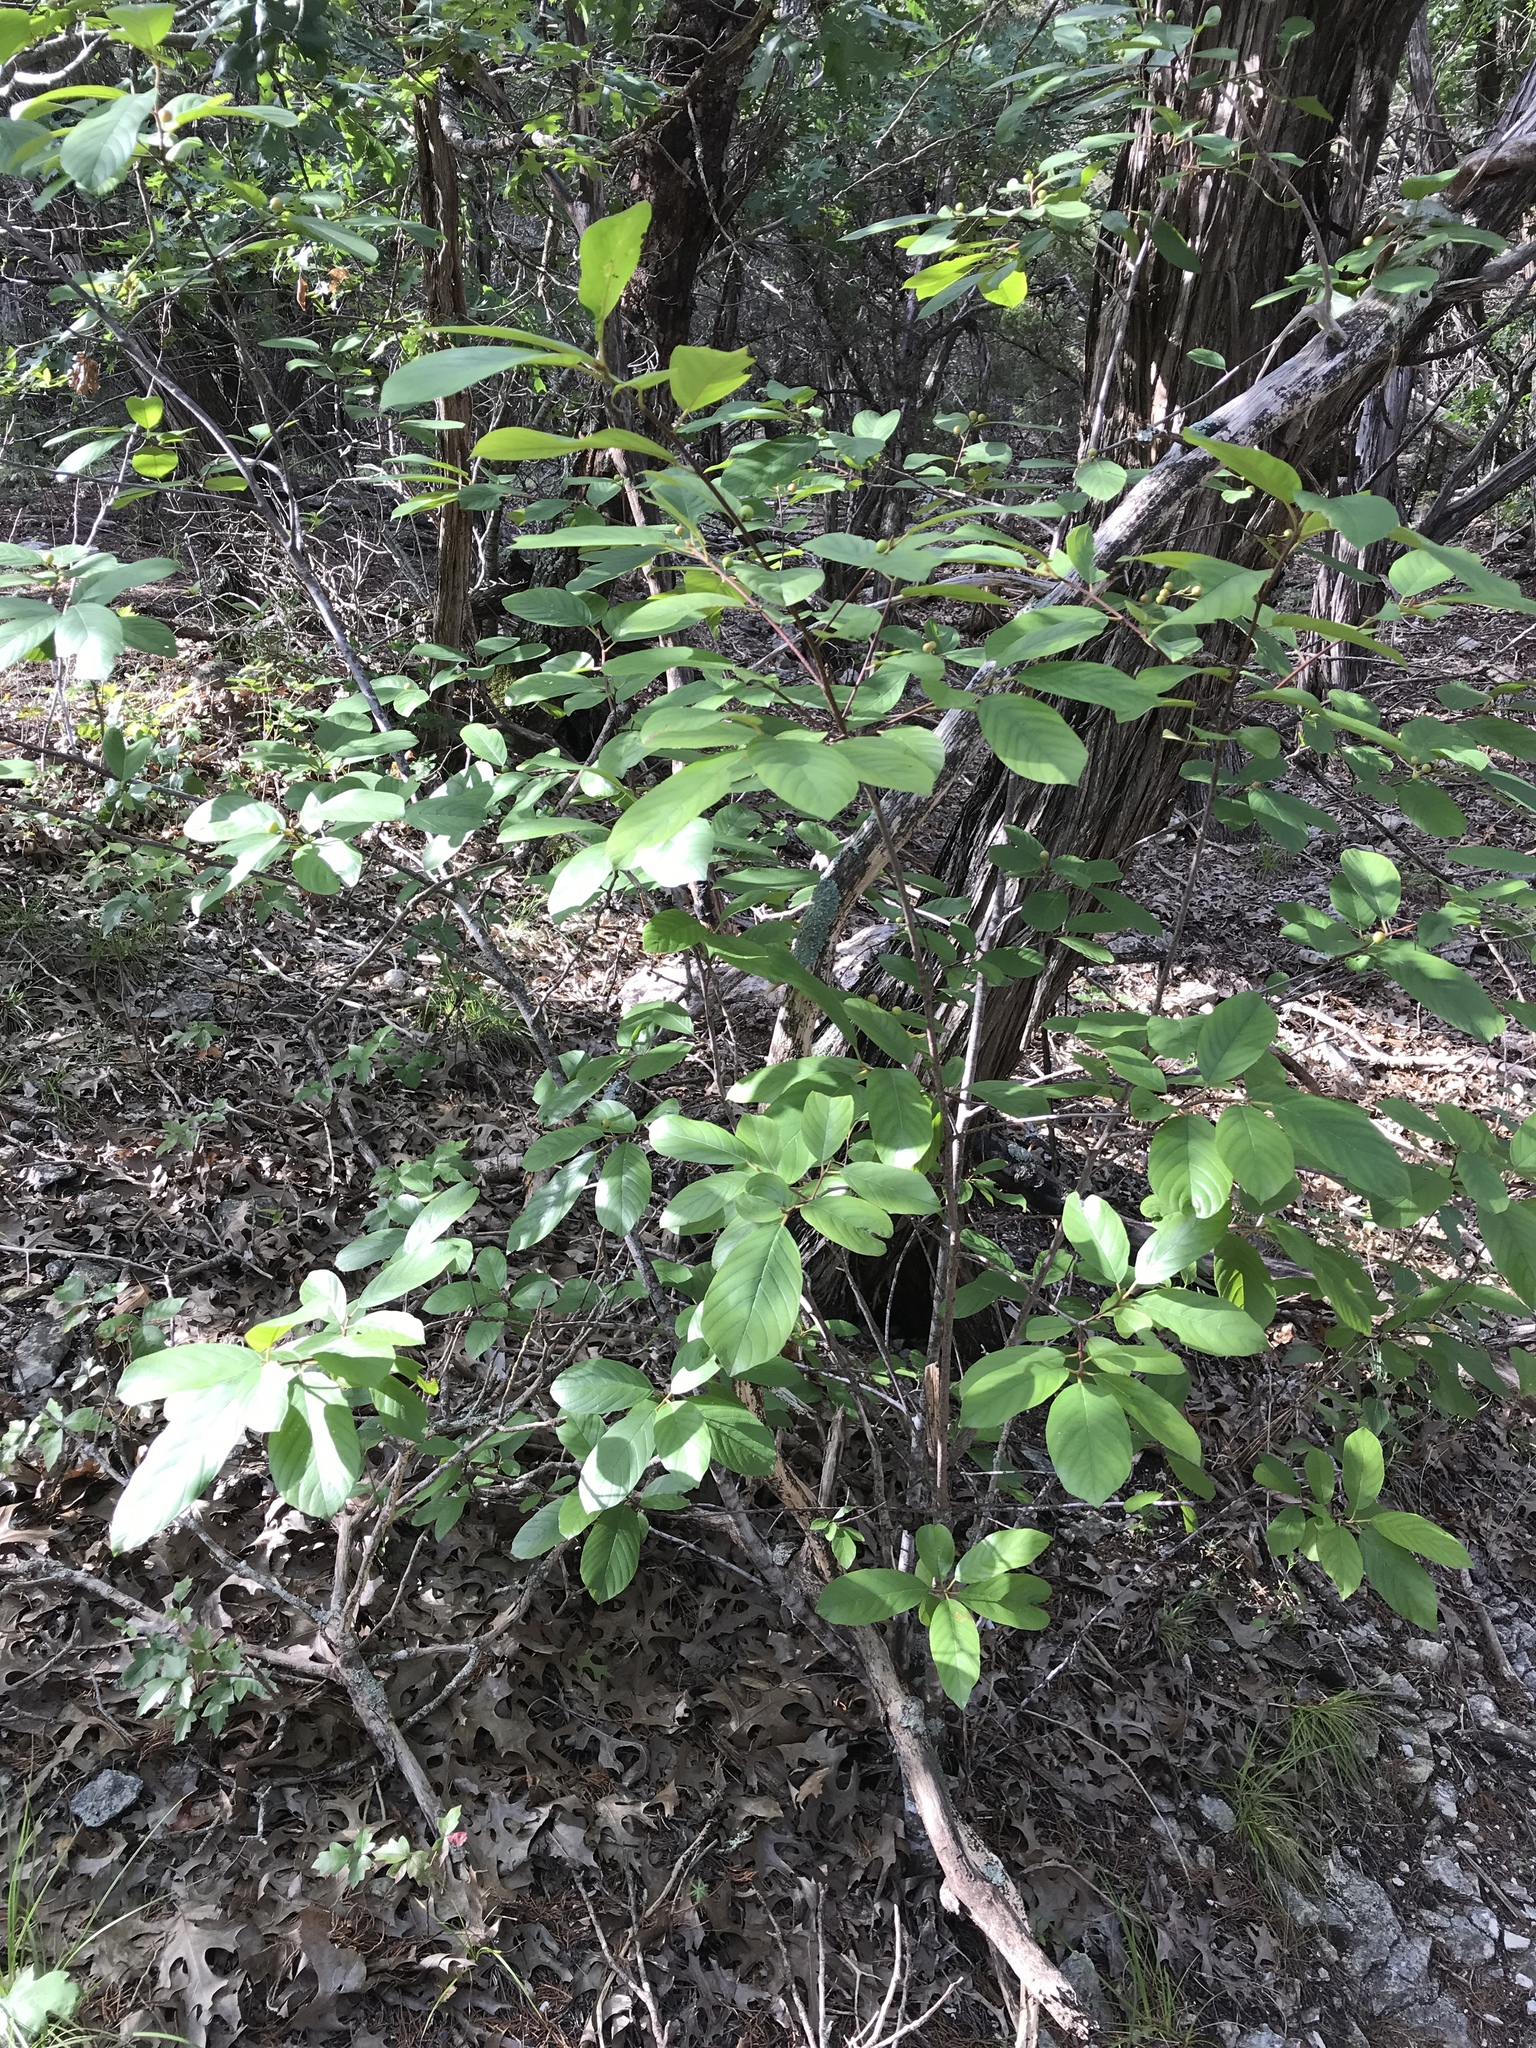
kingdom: Plantae
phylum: Tracheophyta
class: Magnoliopsida
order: Rosales
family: Rhamnaceae
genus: Frangula
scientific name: Frangula caroliniana
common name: Carolina buckthorn
